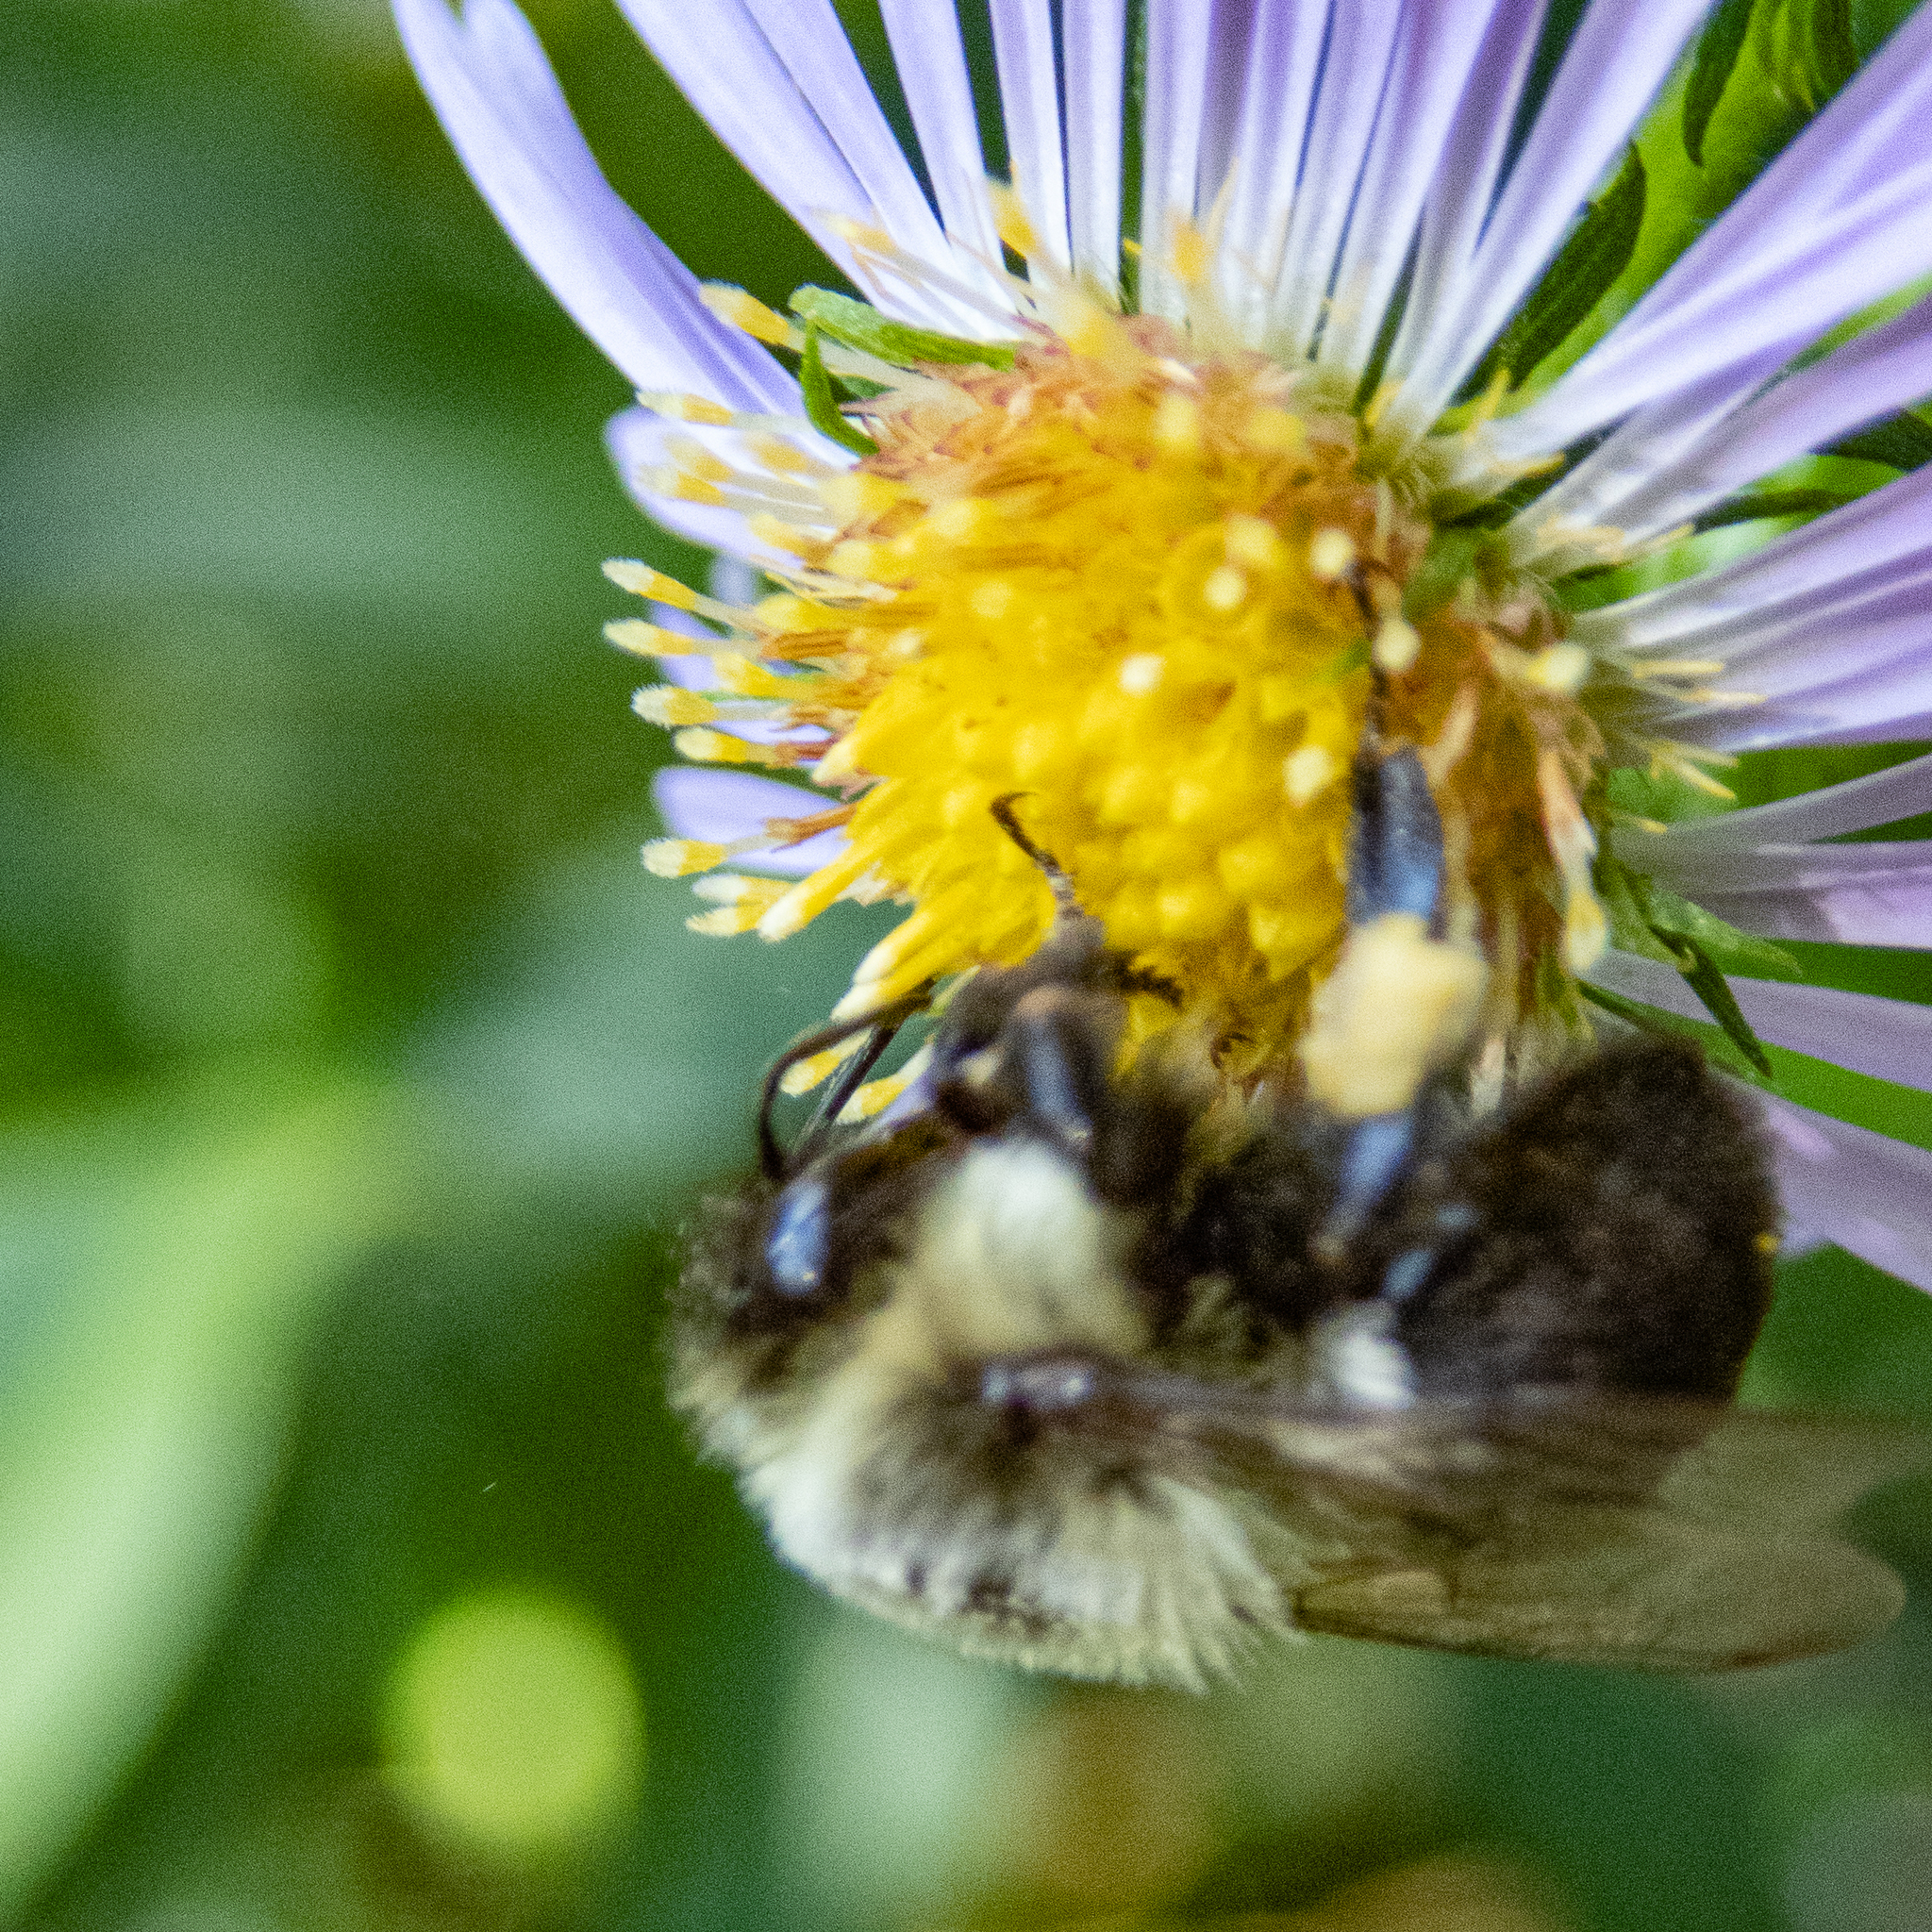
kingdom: Animalia
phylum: Arthropoda
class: Insecta
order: Hymenoptera
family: Apidae
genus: Bombus
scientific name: Bombus impatiens
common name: Common eastern bumble bee
